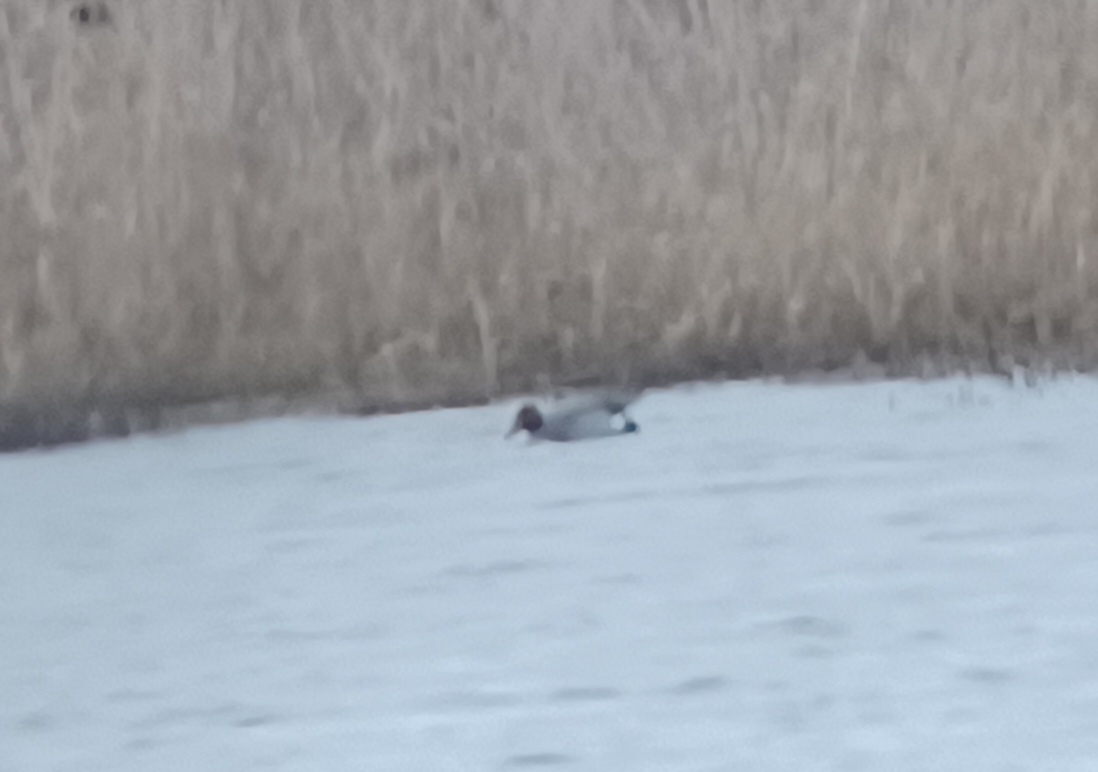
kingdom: Animalia
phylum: Chordata
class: Aves
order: Anseriformes
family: Anatidae
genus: Mareca
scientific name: Mareca penelope
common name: Eurasian wigeon
